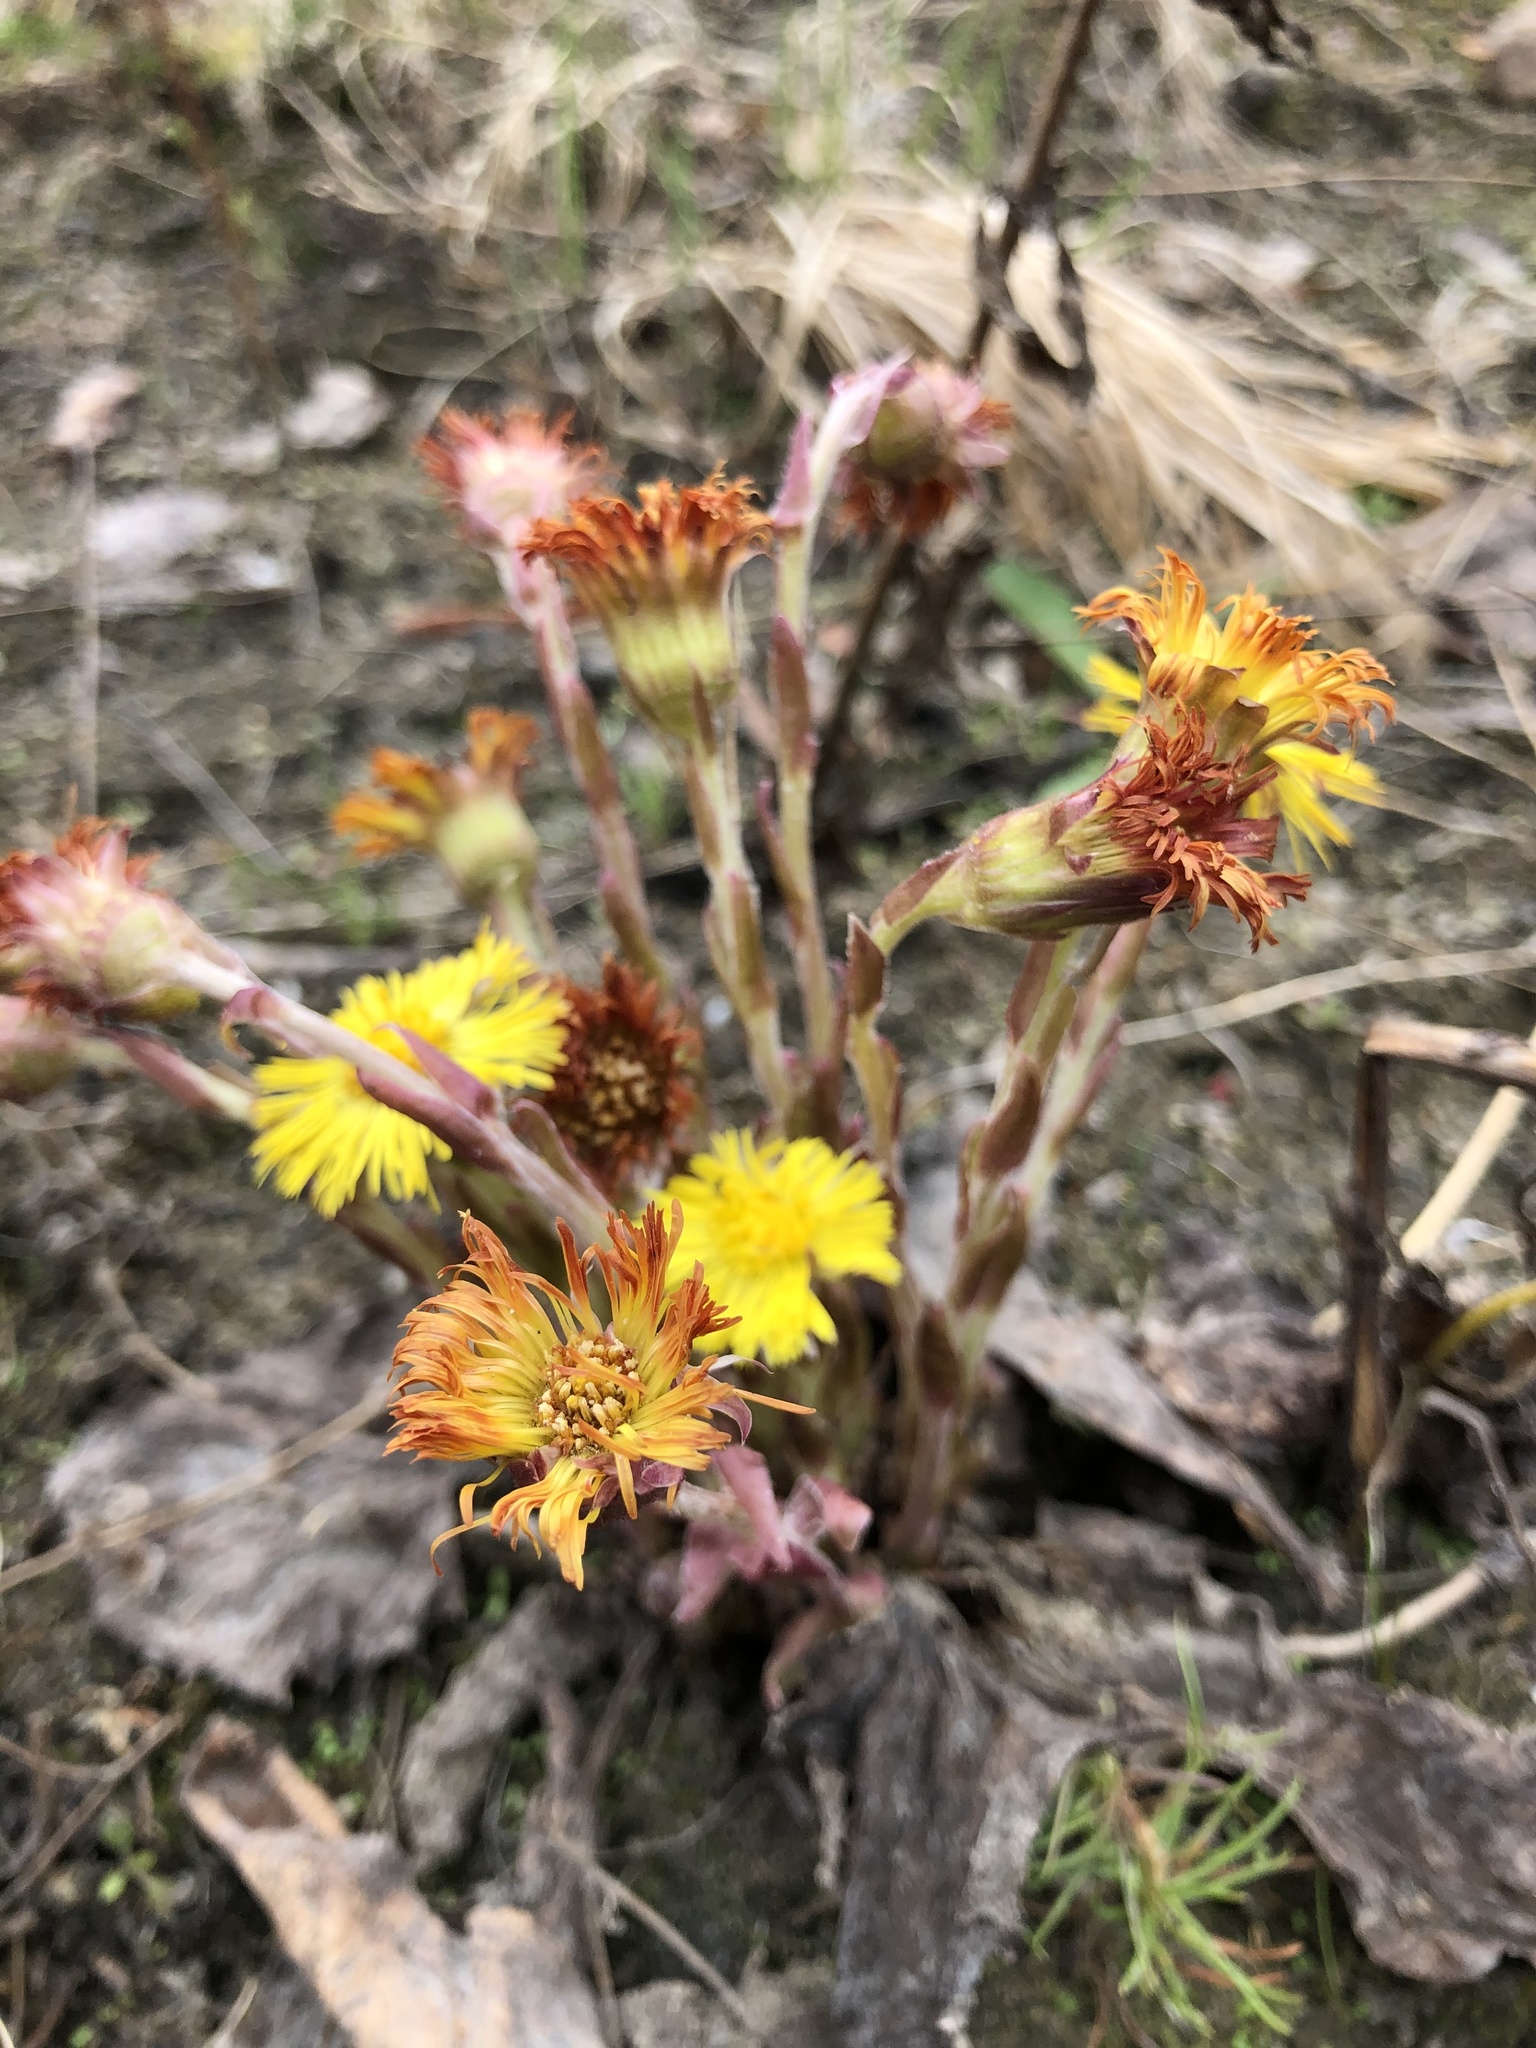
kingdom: Plantae
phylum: Tracheophyta
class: Magnoliopsida
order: Asterales
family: Asteraceae
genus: Tussilago
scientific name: Tussilago farfara
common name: Coltsfoot
